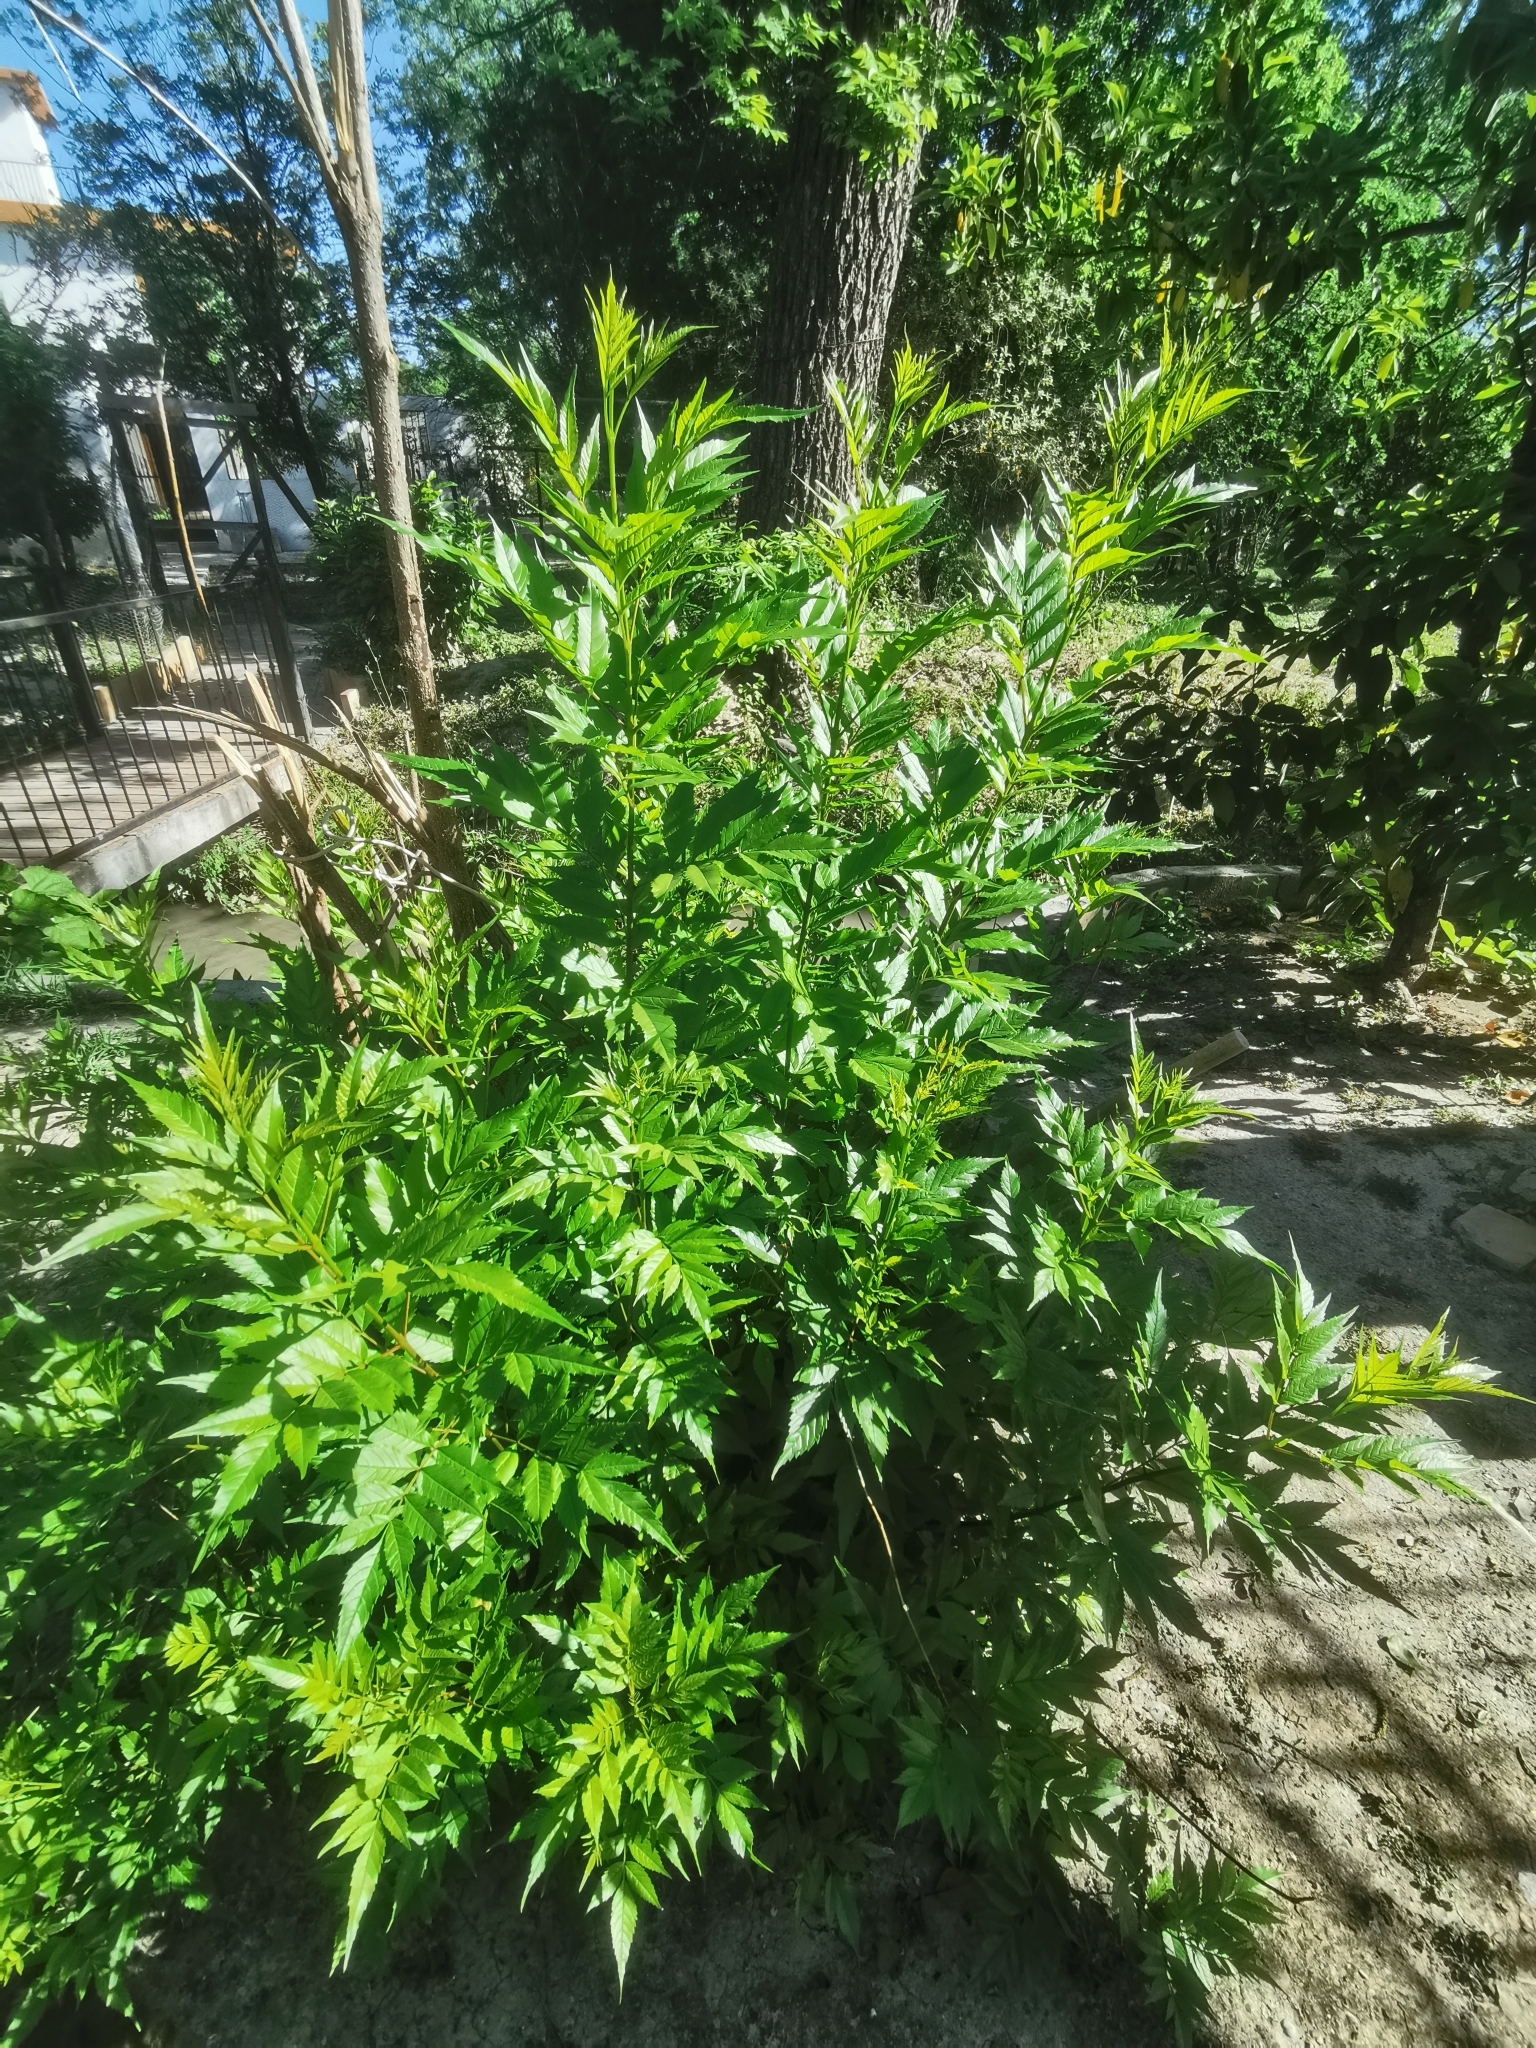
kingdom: Plantae
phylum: Tracheophyta
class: Magnoliopsida
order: Lamiales
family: Bignoniaceae
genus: Tecoma
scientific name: Tecoma stans
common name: Yellow trumpetbush
